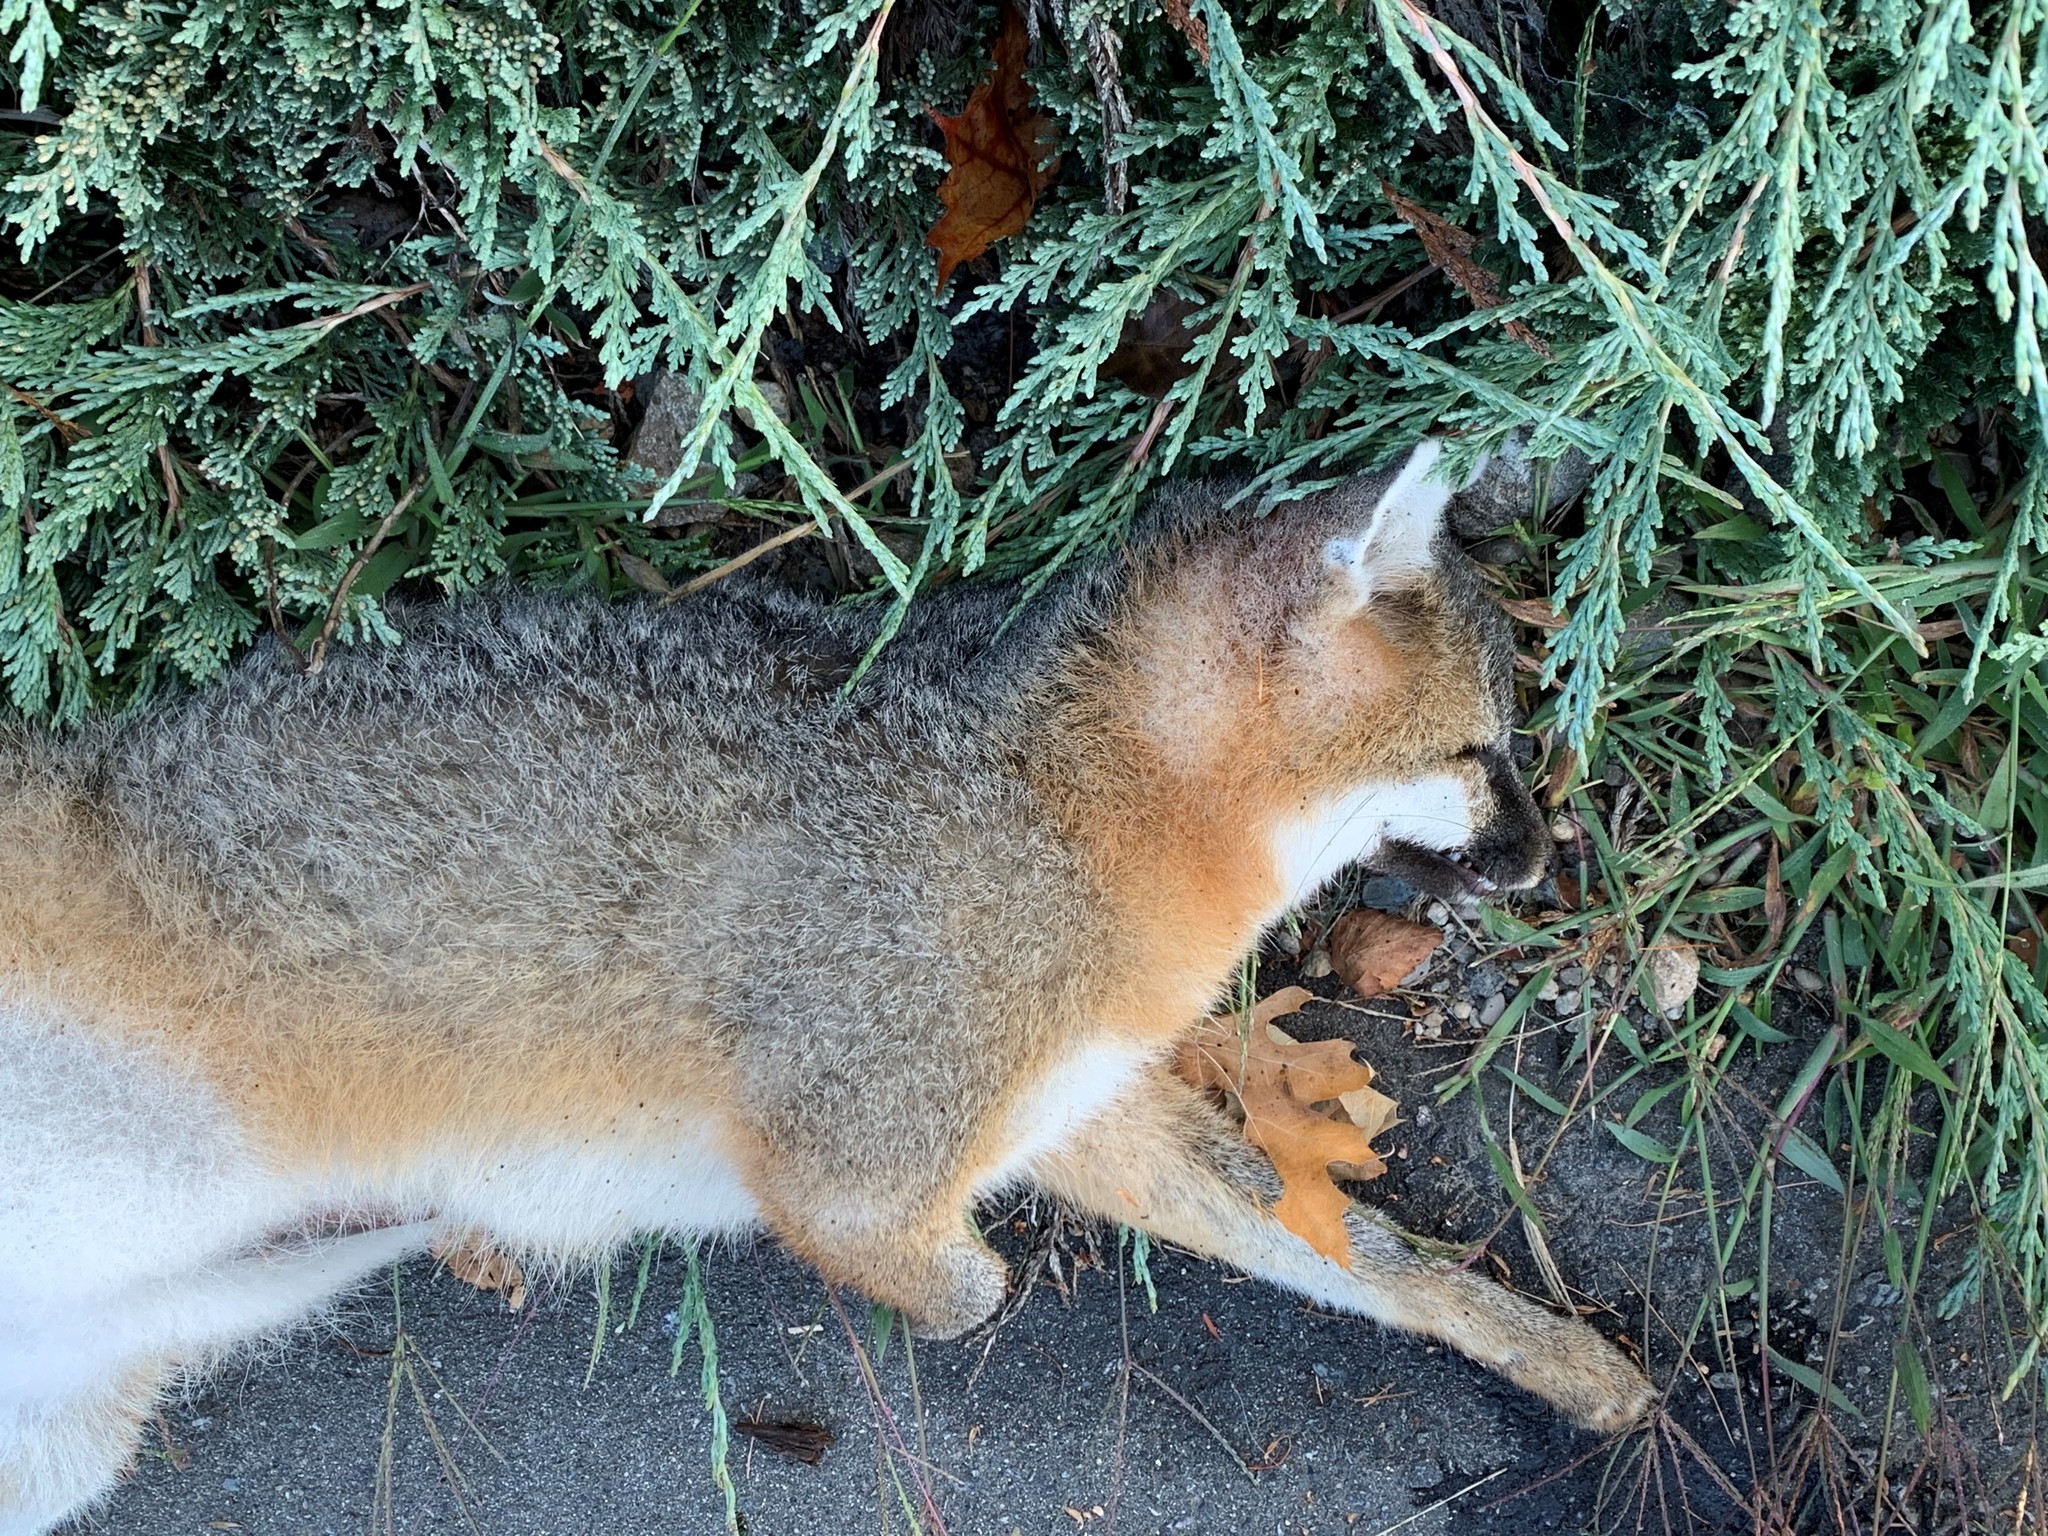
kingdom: Animalia
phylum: Chordata
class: Mammalia
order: Carnivora
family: Canidae
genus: Urocyon
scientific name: Urocyon cinereoargenteus
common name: Gray fox
